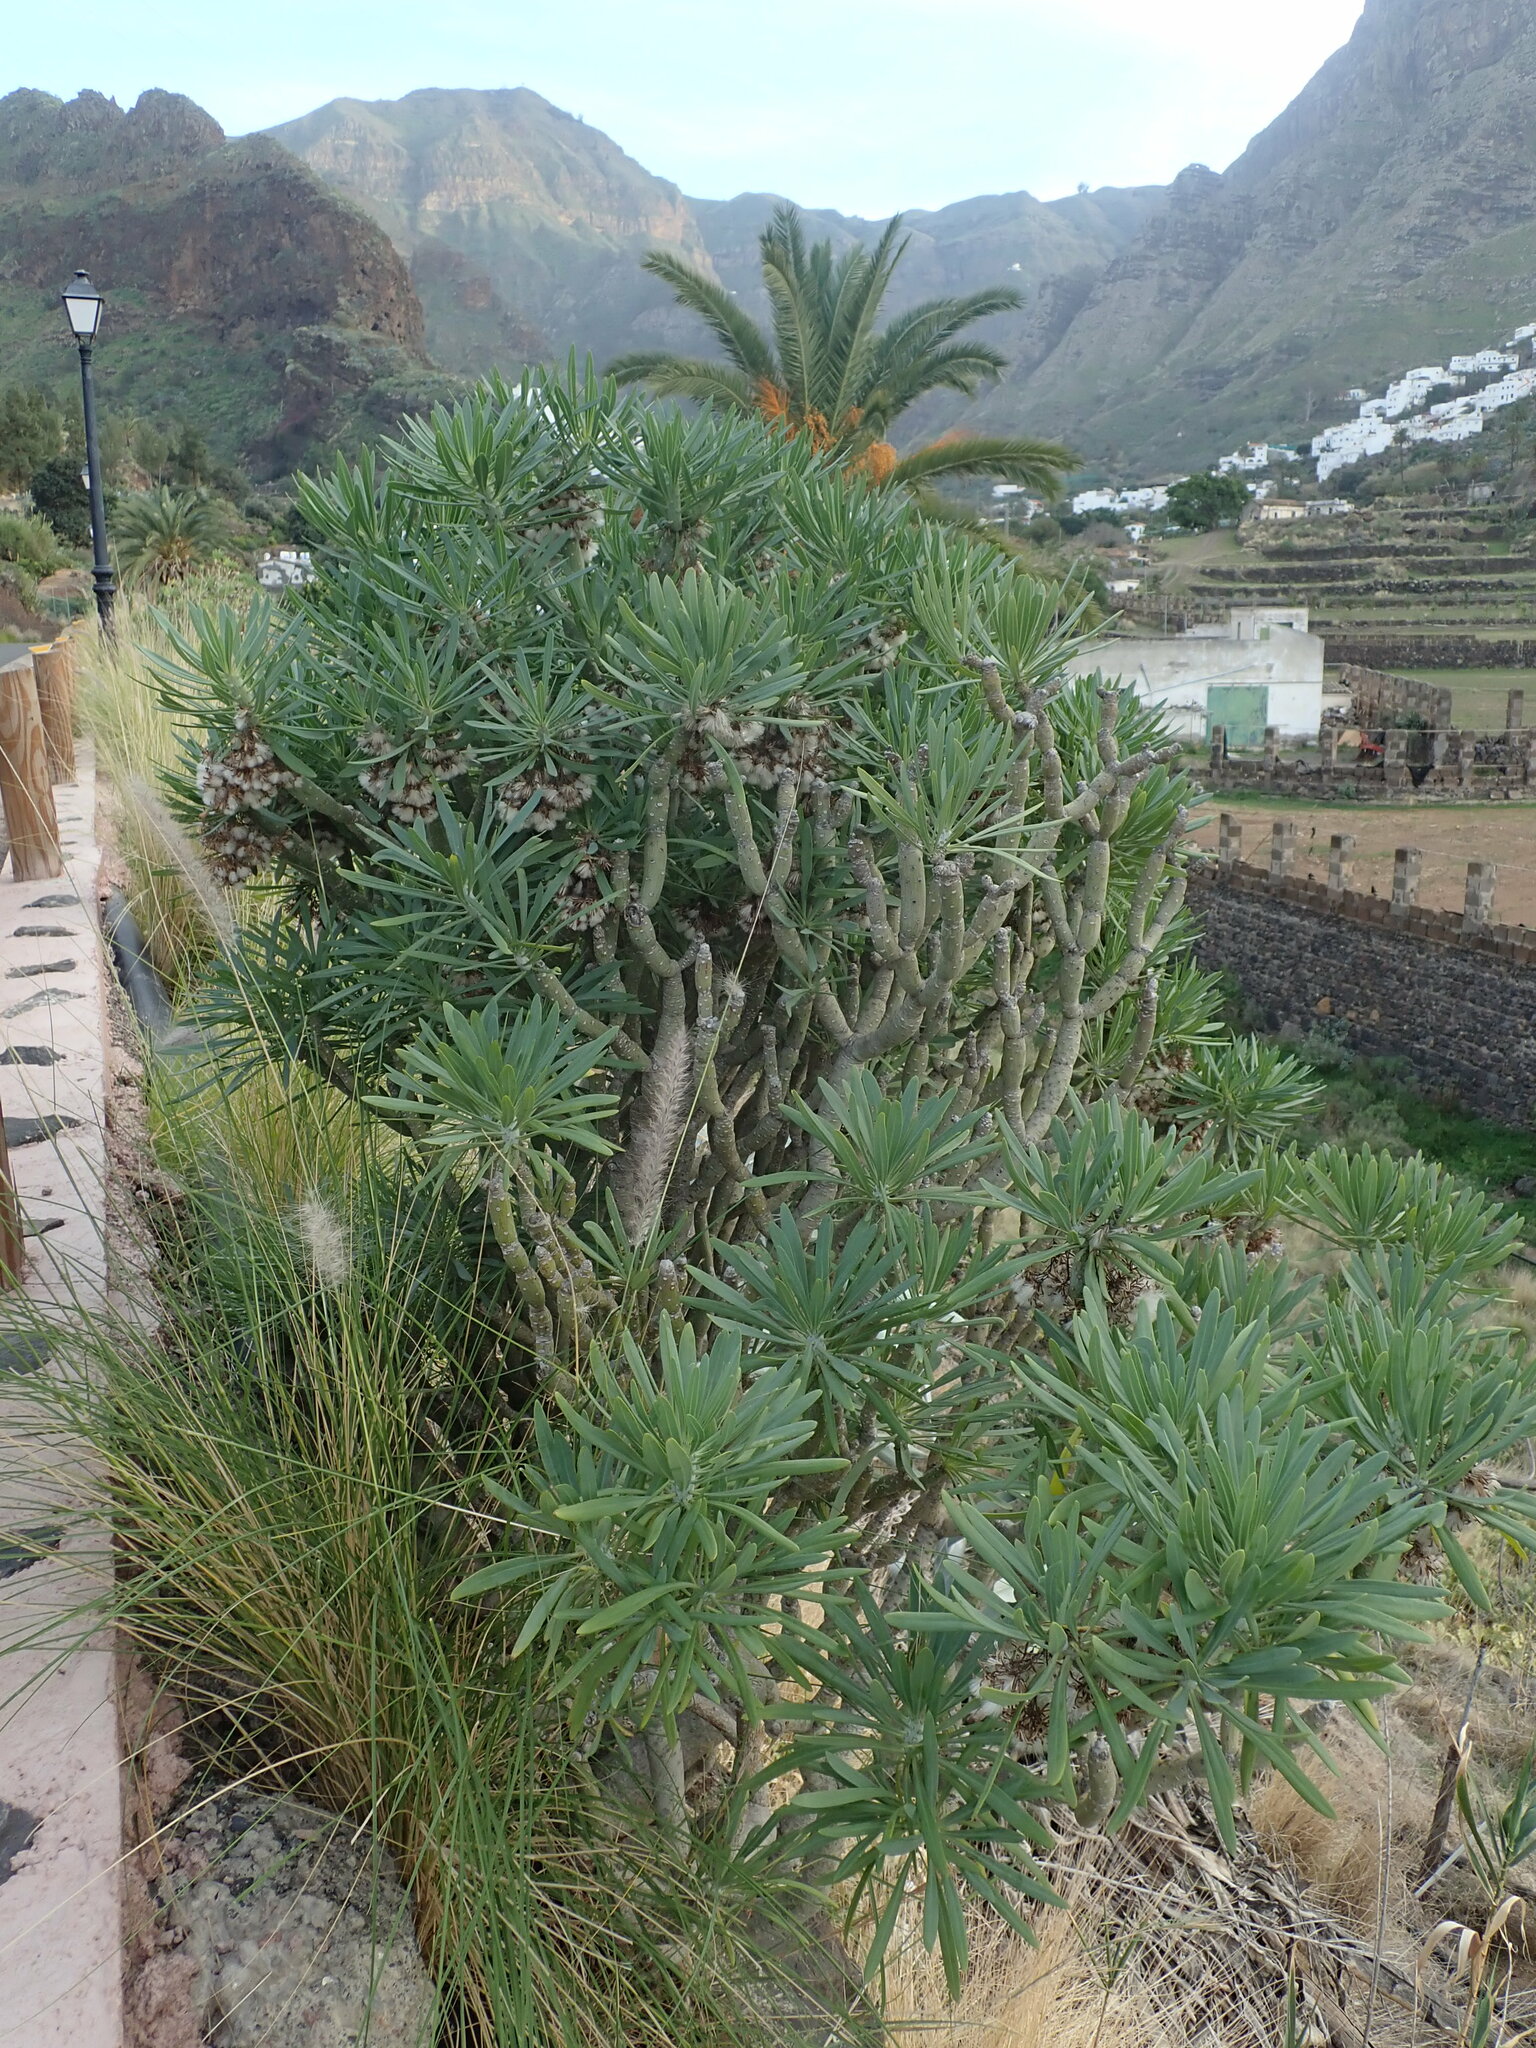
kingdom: Plantae
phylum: Tracheophyta
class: Magnoliopsida
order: Asterales
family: Asteraceae
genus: Kleinia
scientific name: Kleinia neriifolia
